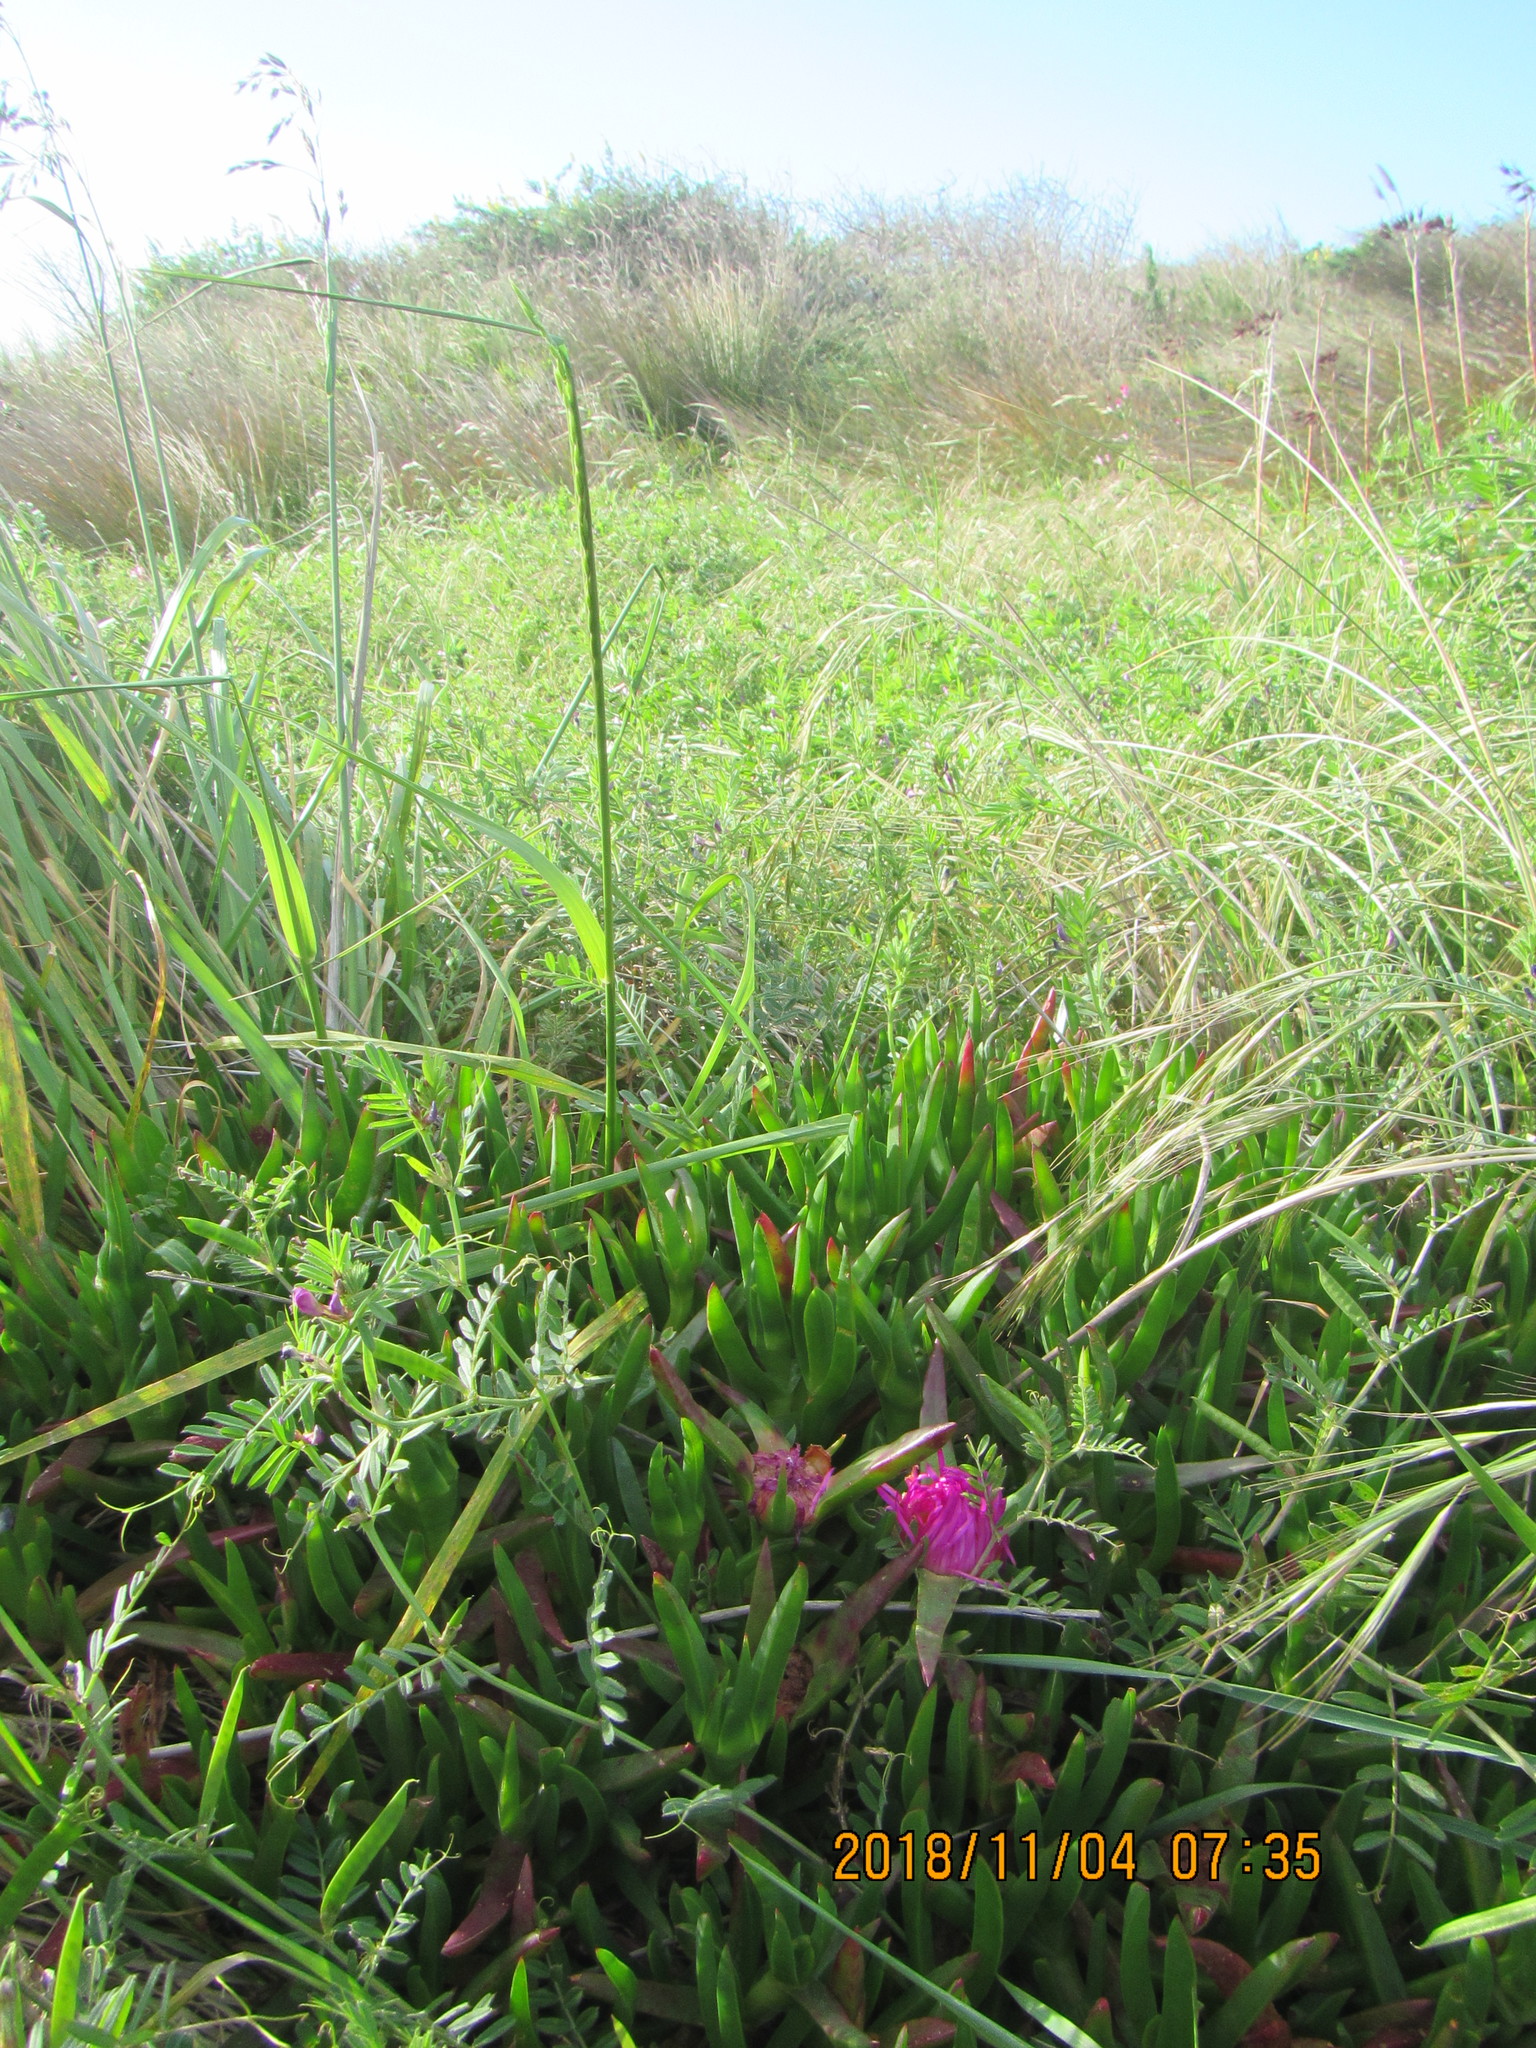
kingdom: Plantae
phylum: Tracheophyta
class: Magnoliopsida
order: Caryophyllales
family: Aizoaceae
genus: Carpobrotus
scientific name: Carpobrotus chilensis
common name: Sea fig
